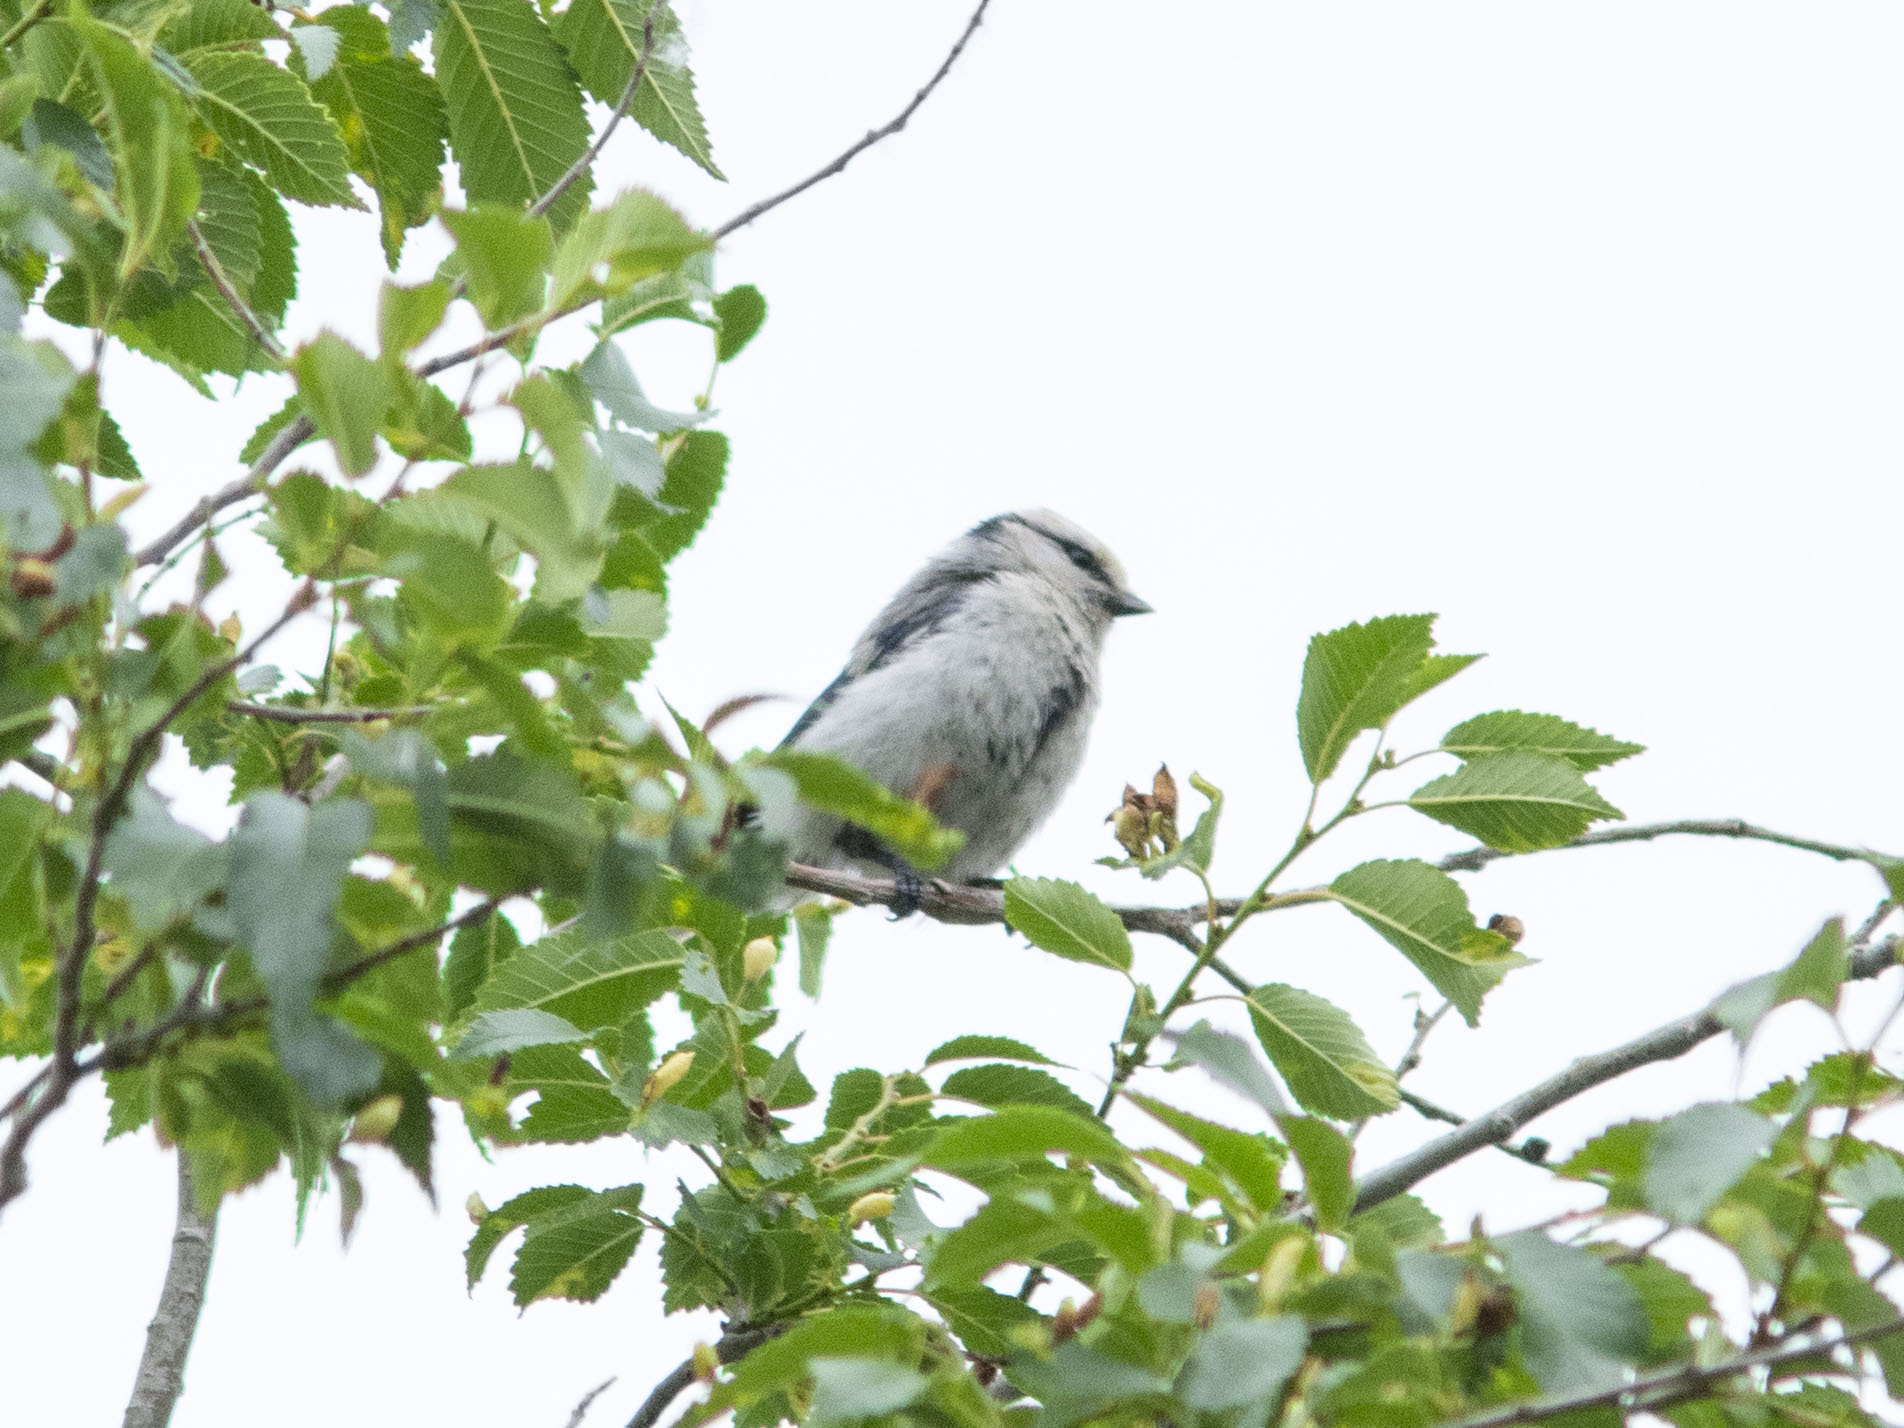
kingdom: Animalia
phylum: Chordata
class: Aves
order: Passeriformes
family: Paridae
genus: Cyanistes
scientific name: Cyanistes cyanus
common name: Azure tit
